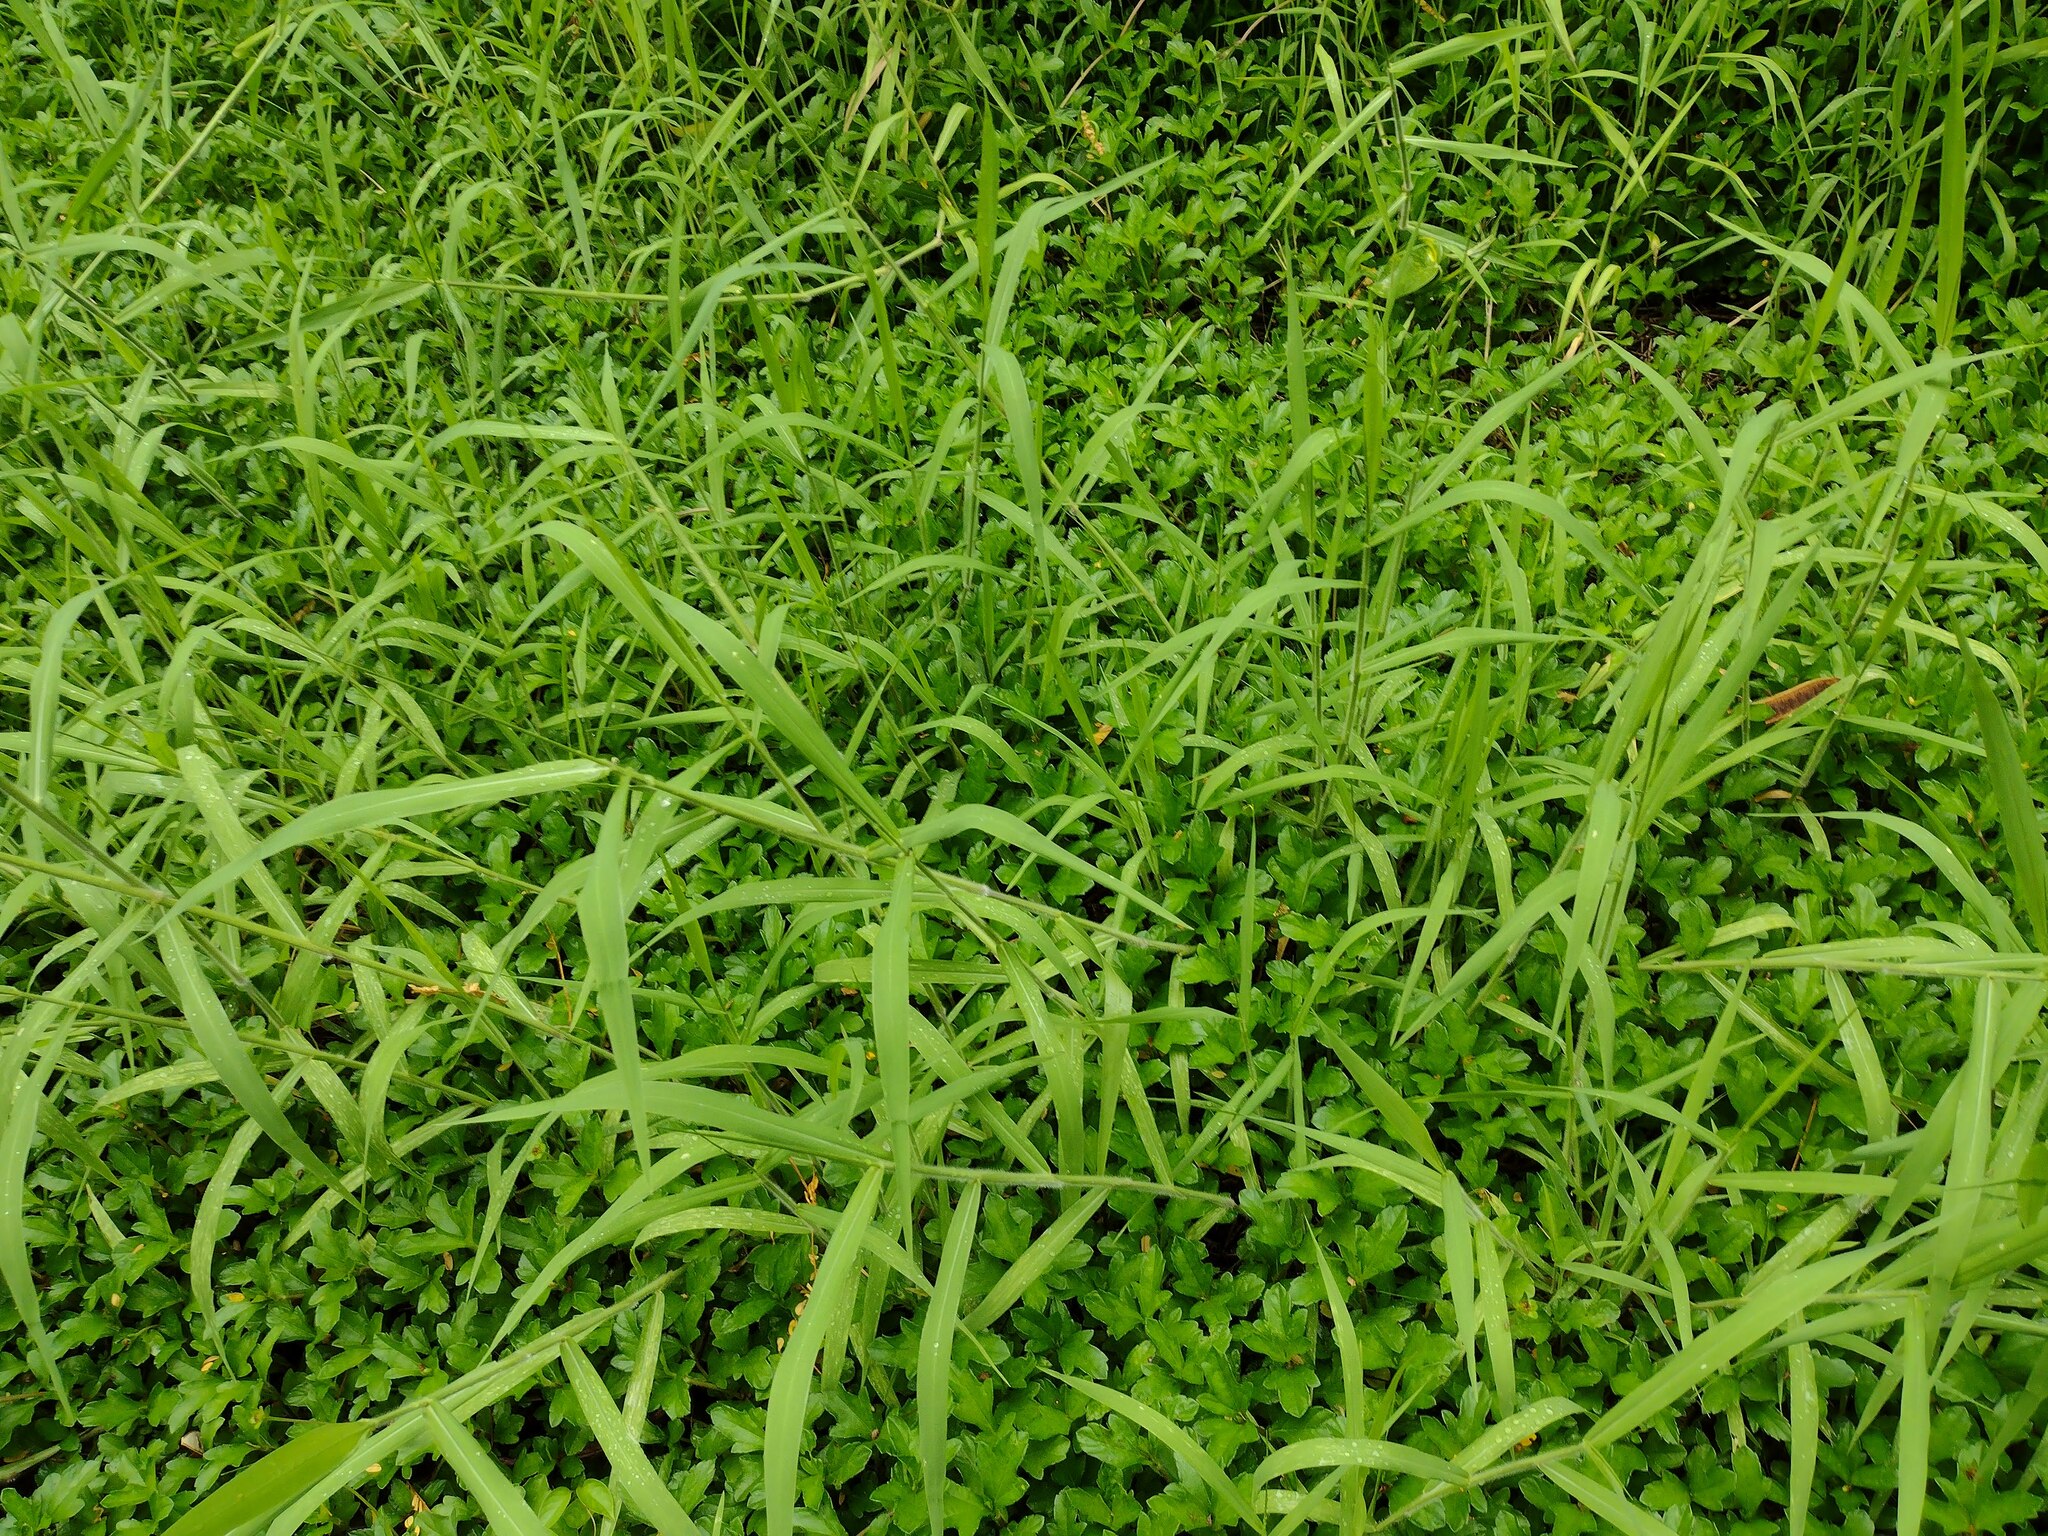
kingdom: Plantae
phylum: Tracheophyta
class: Liliopsida
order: Poales
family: Poaceae
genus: Urochloa
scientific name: Urochloa mutica
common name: Para grass
